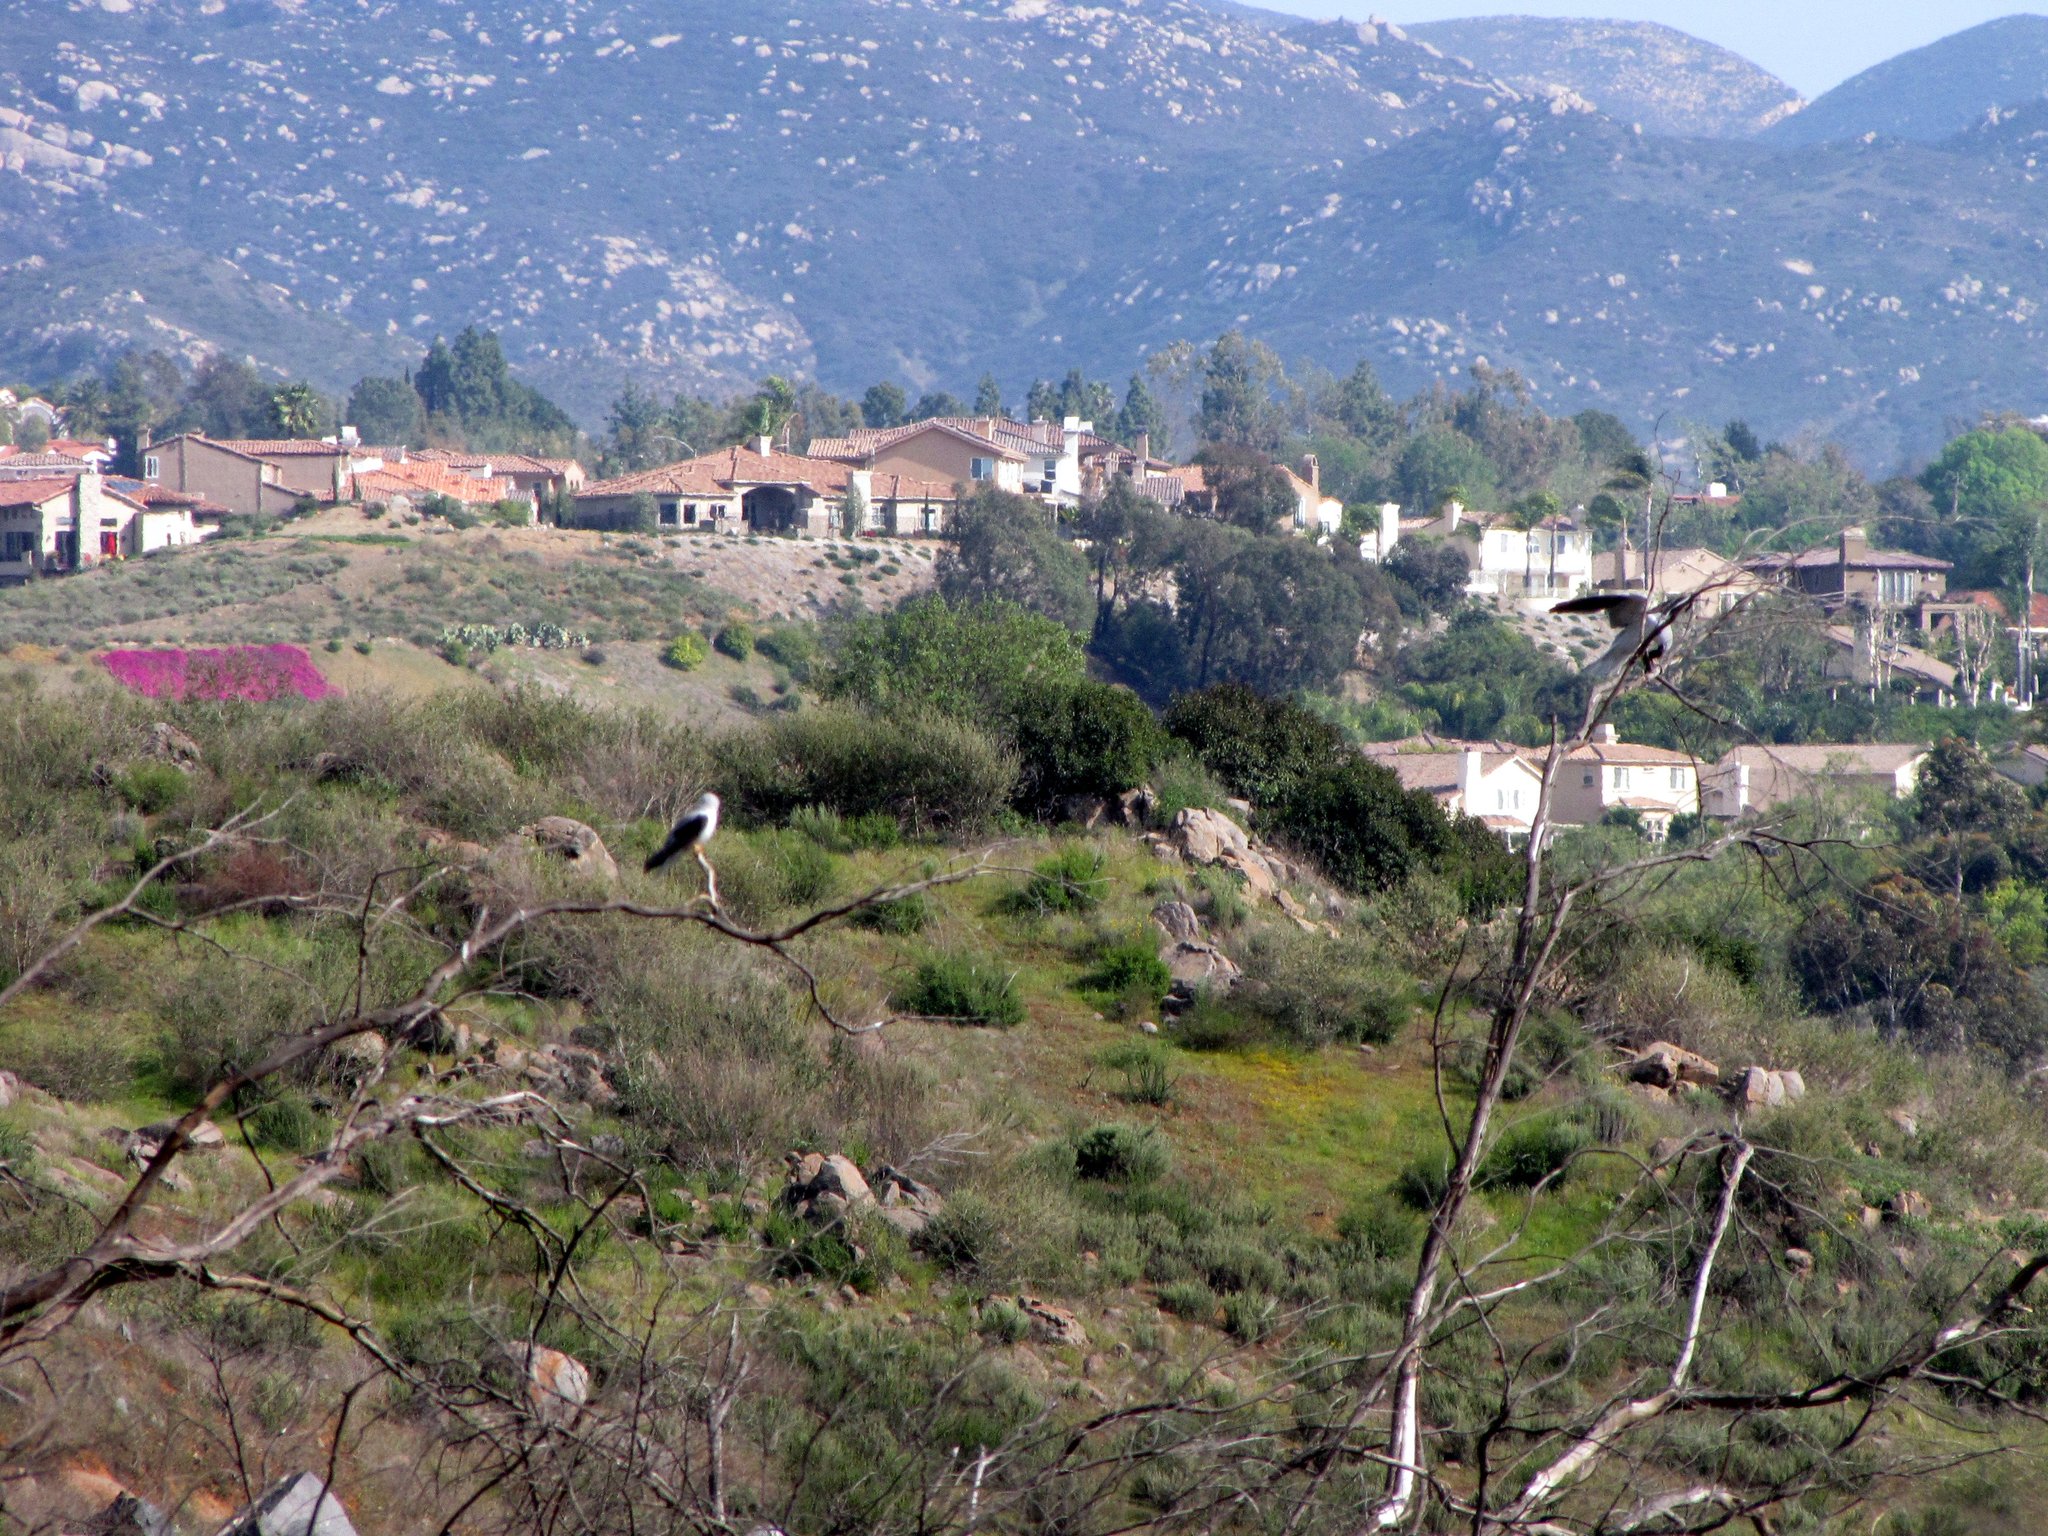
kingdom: Animalia
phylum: Chordata
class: Aves
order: Accipitriformes
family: Accipitridae
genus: Elanus
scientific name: Elanus leucurus
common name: White-tailed kite
